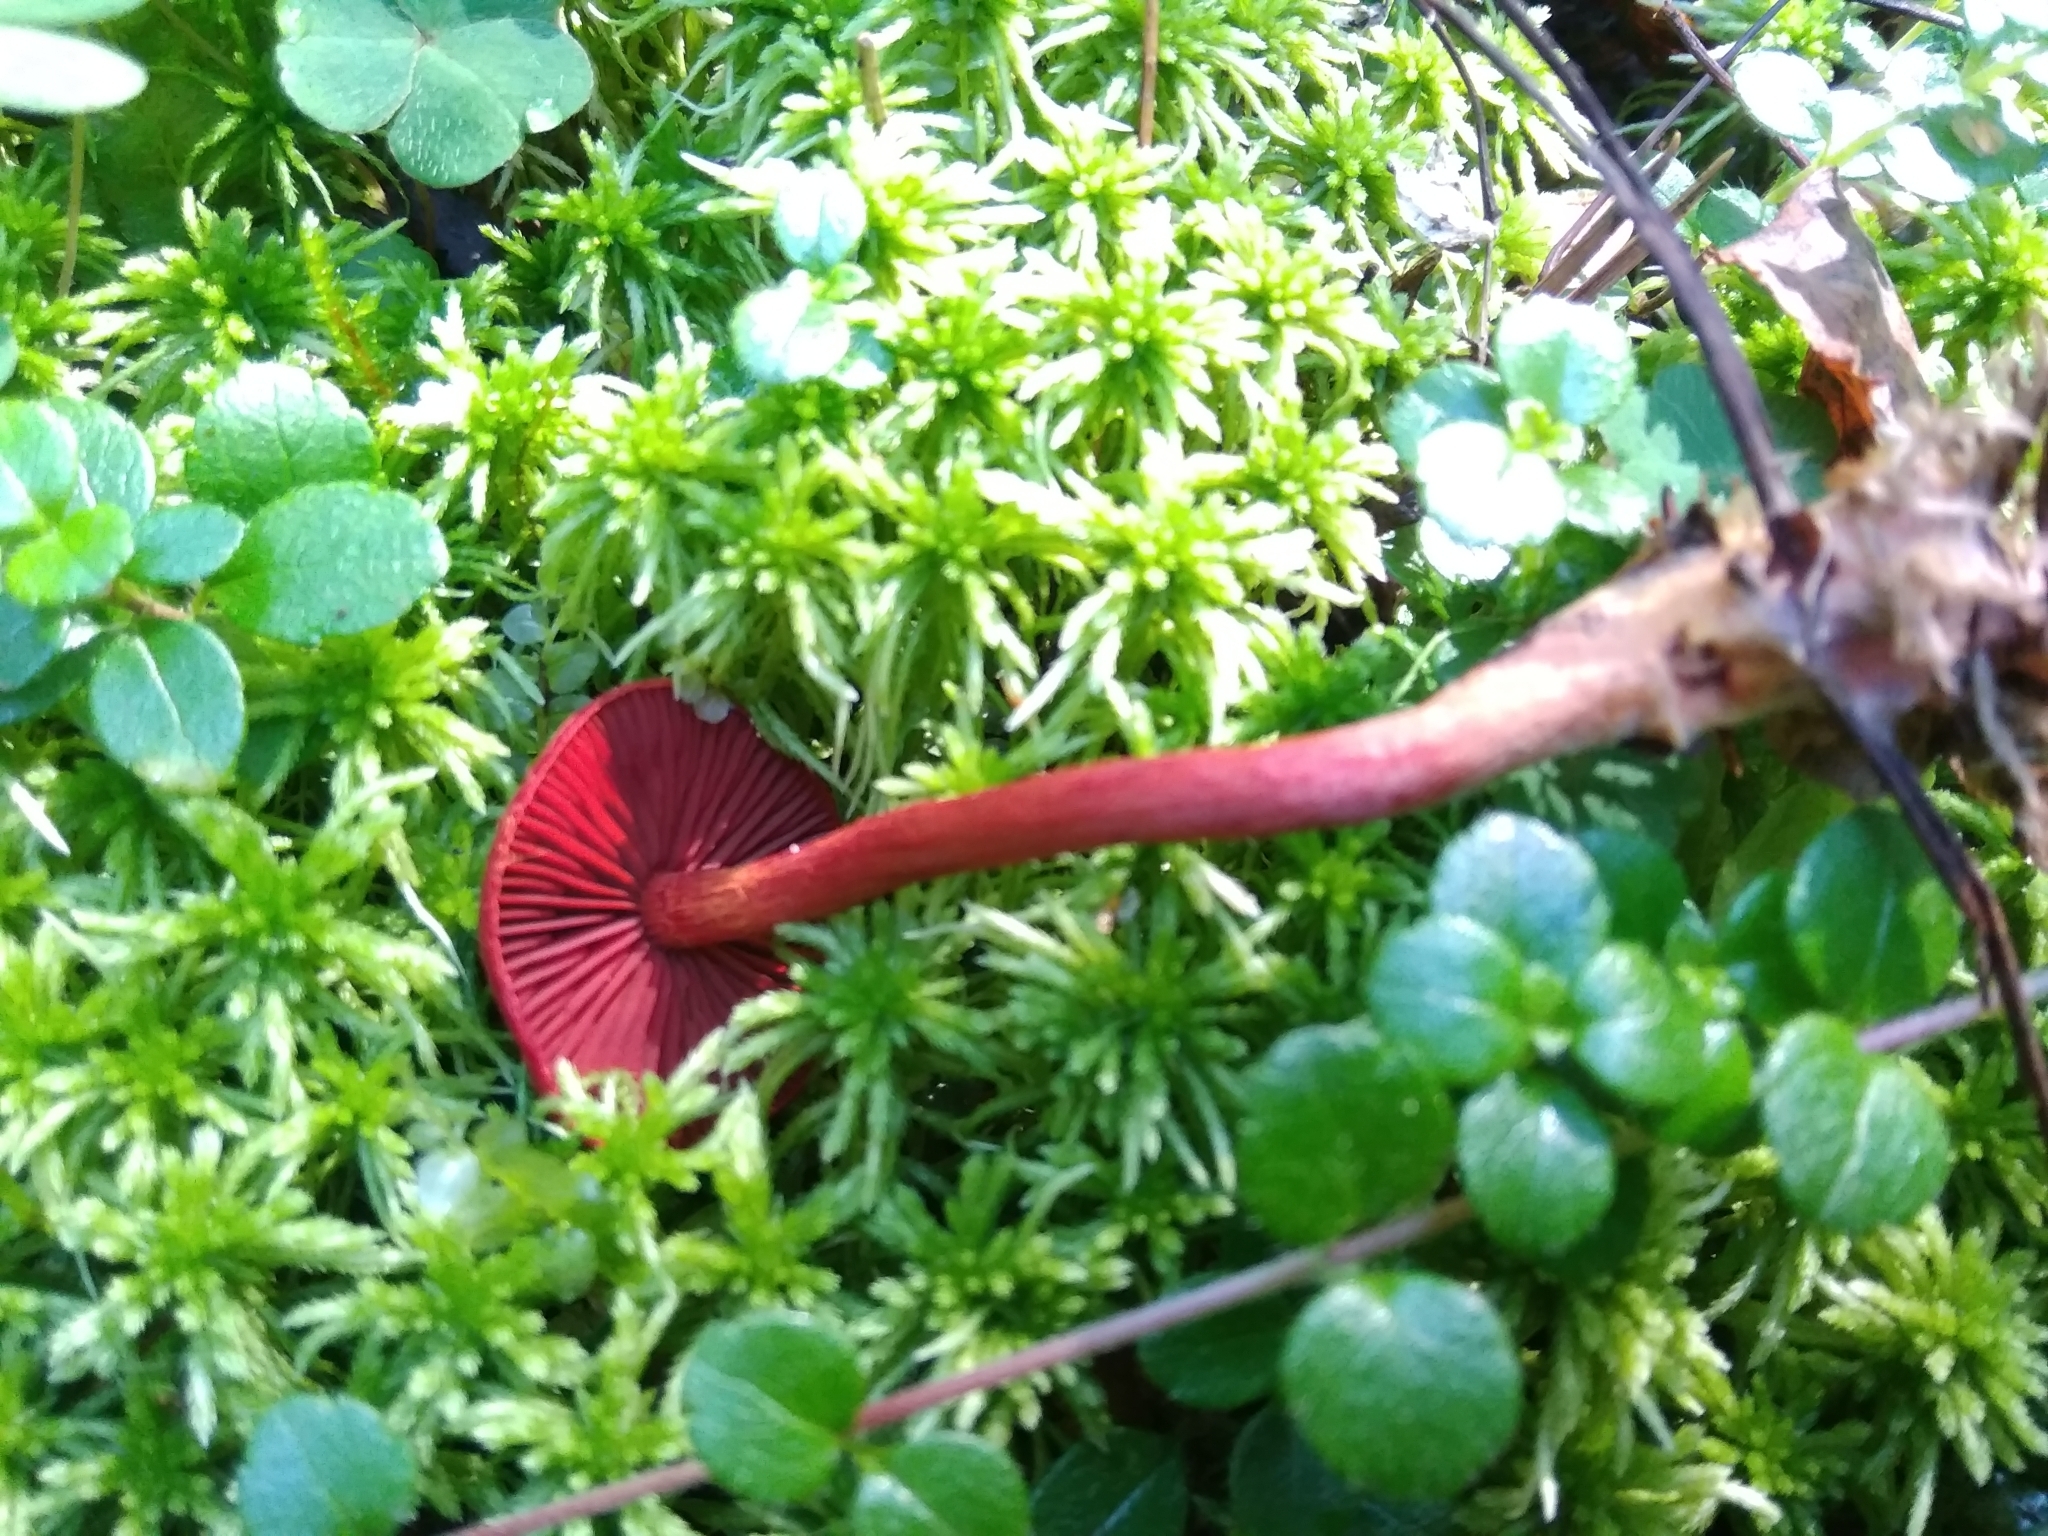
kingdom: Fungi
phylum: Basidiomycota
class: Agaricomycetes
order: Agaricales
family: Cortinariaceae
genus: Cortinarius
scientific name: Cortinarius sanguineus
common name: Bloodred webcap
